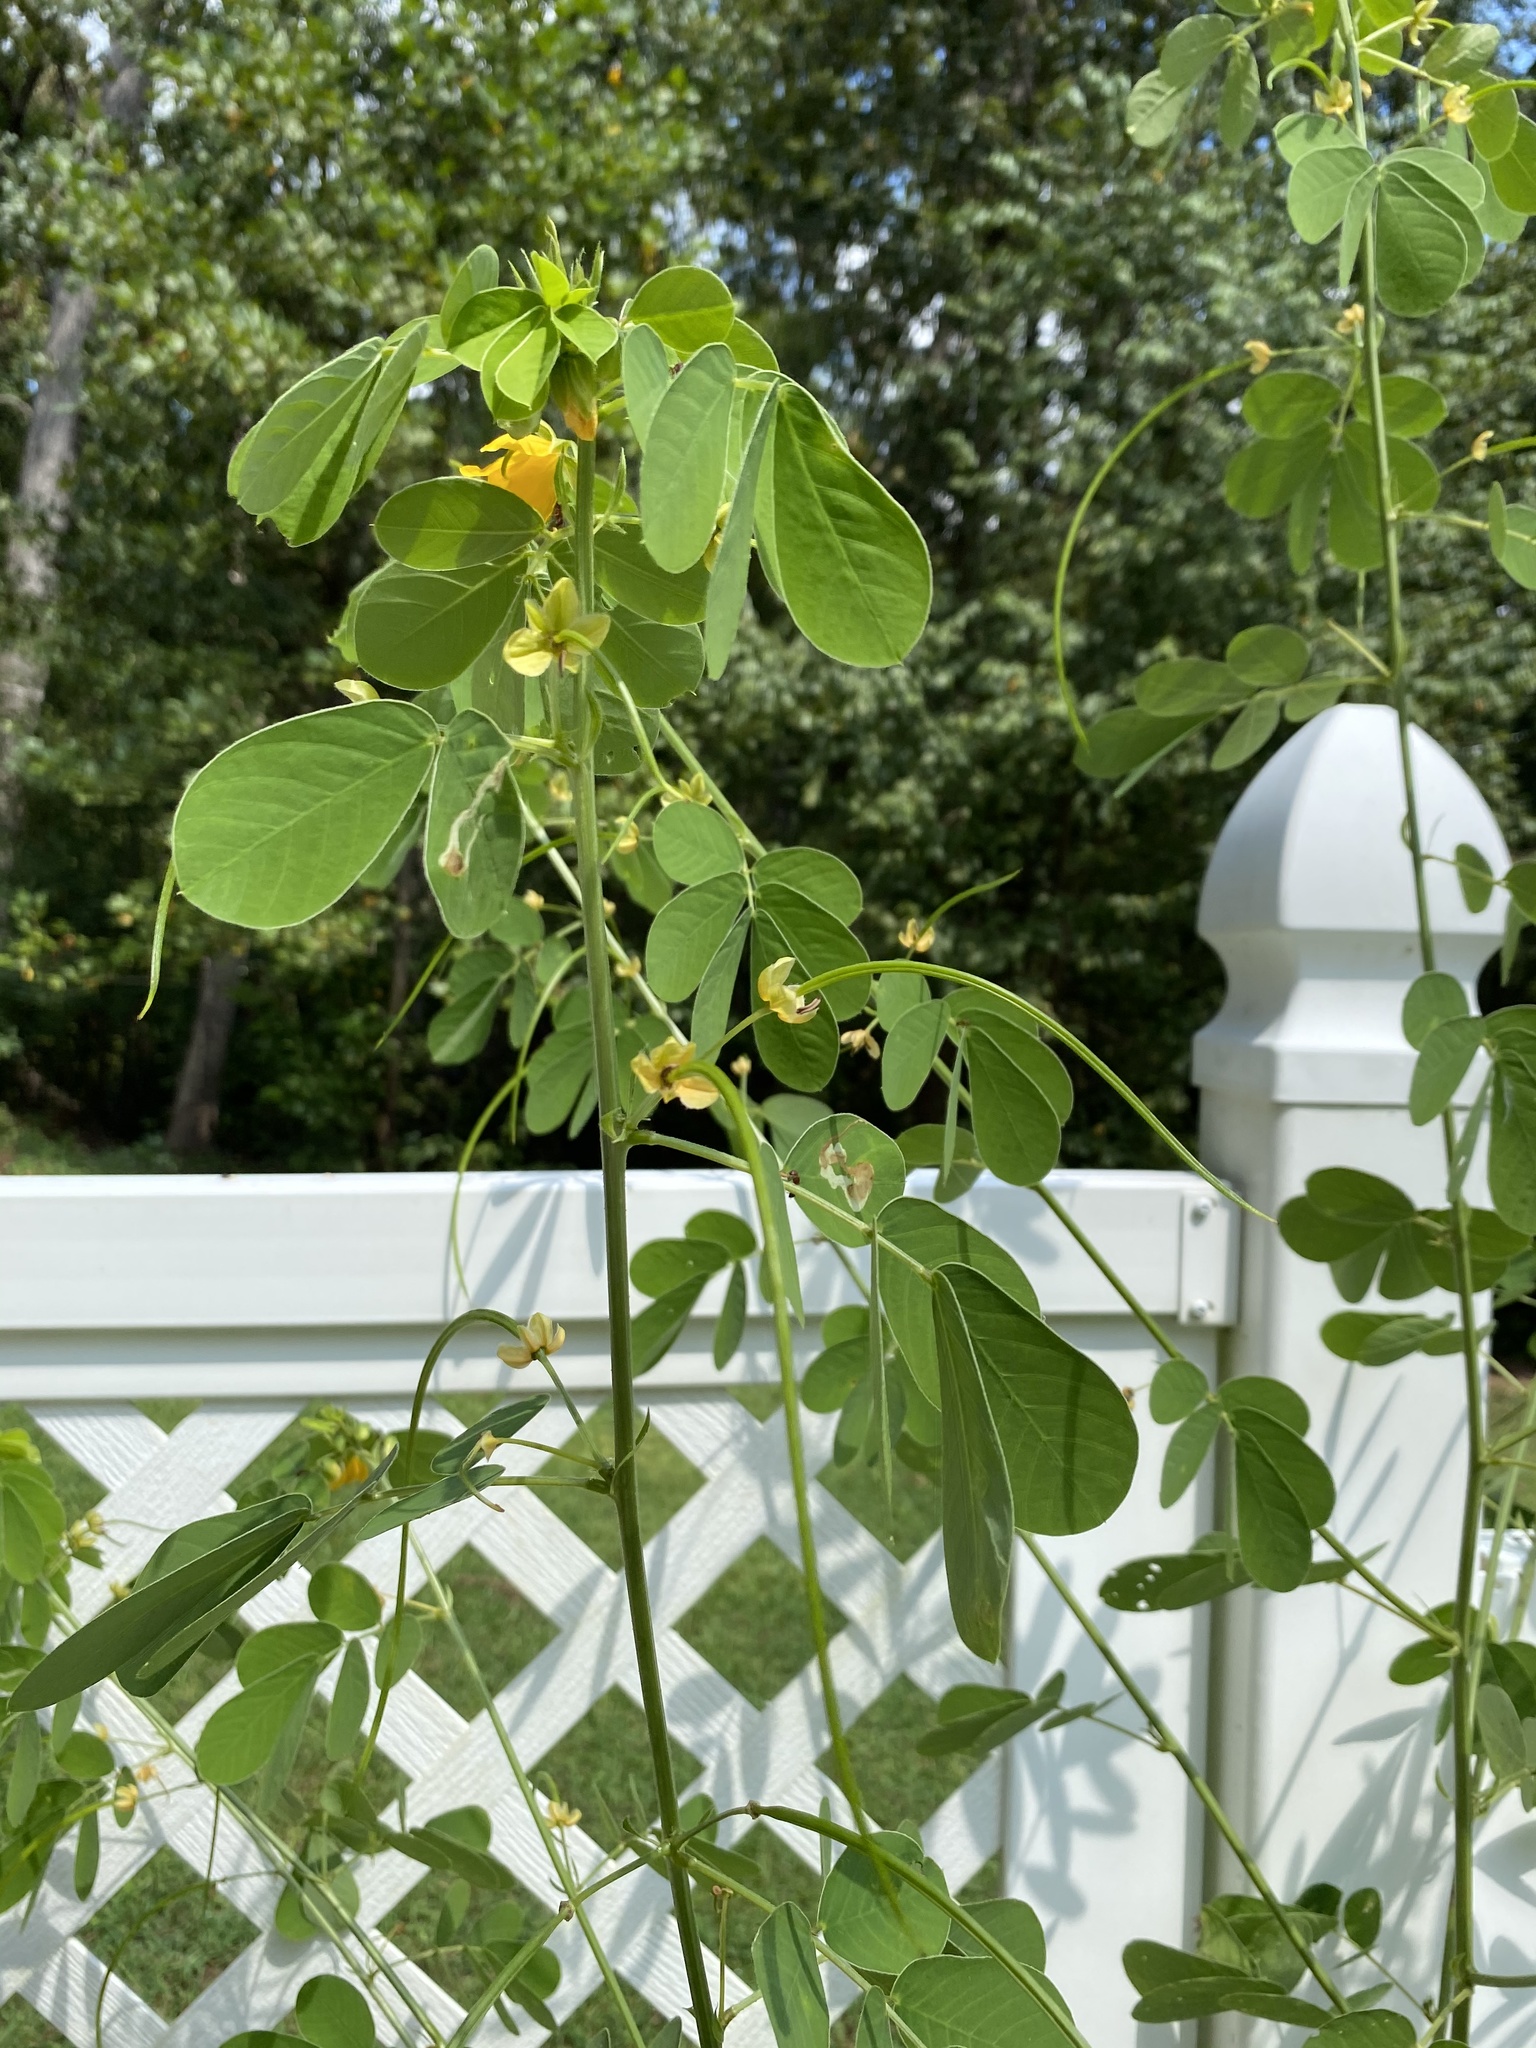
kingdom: Plantae
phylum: Tracheophyta
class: Magnoliopsida
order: Fabales
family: Fabaceae
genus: Senna
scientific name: Senna obtusifolia
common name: Java-bean
